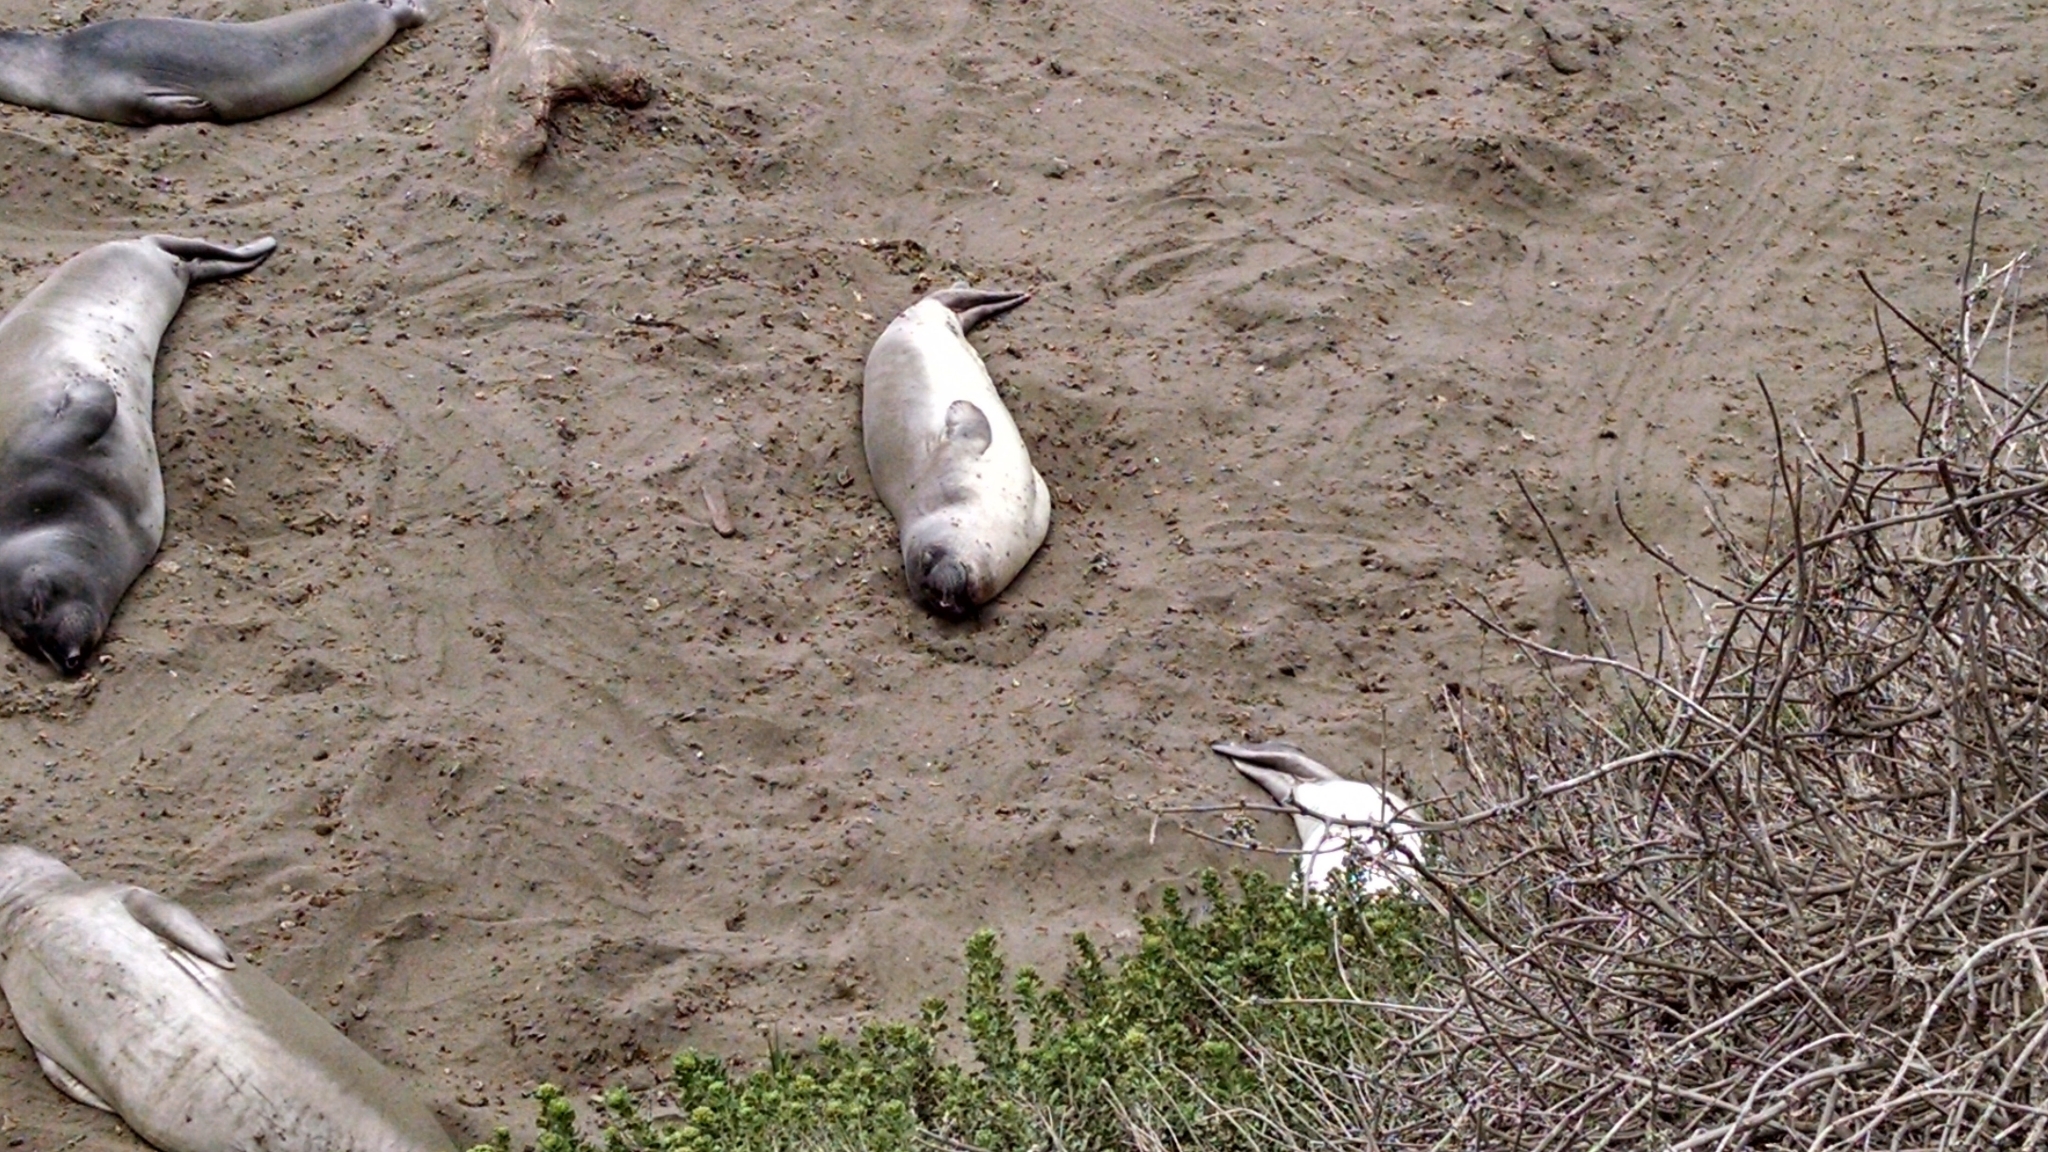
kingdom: Animalia
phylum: Chordata
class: Mammalia
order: Carnivora
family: Phocidae
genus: Mirounga
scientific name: Mirounga angustirostris
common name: Northern elephant seal
